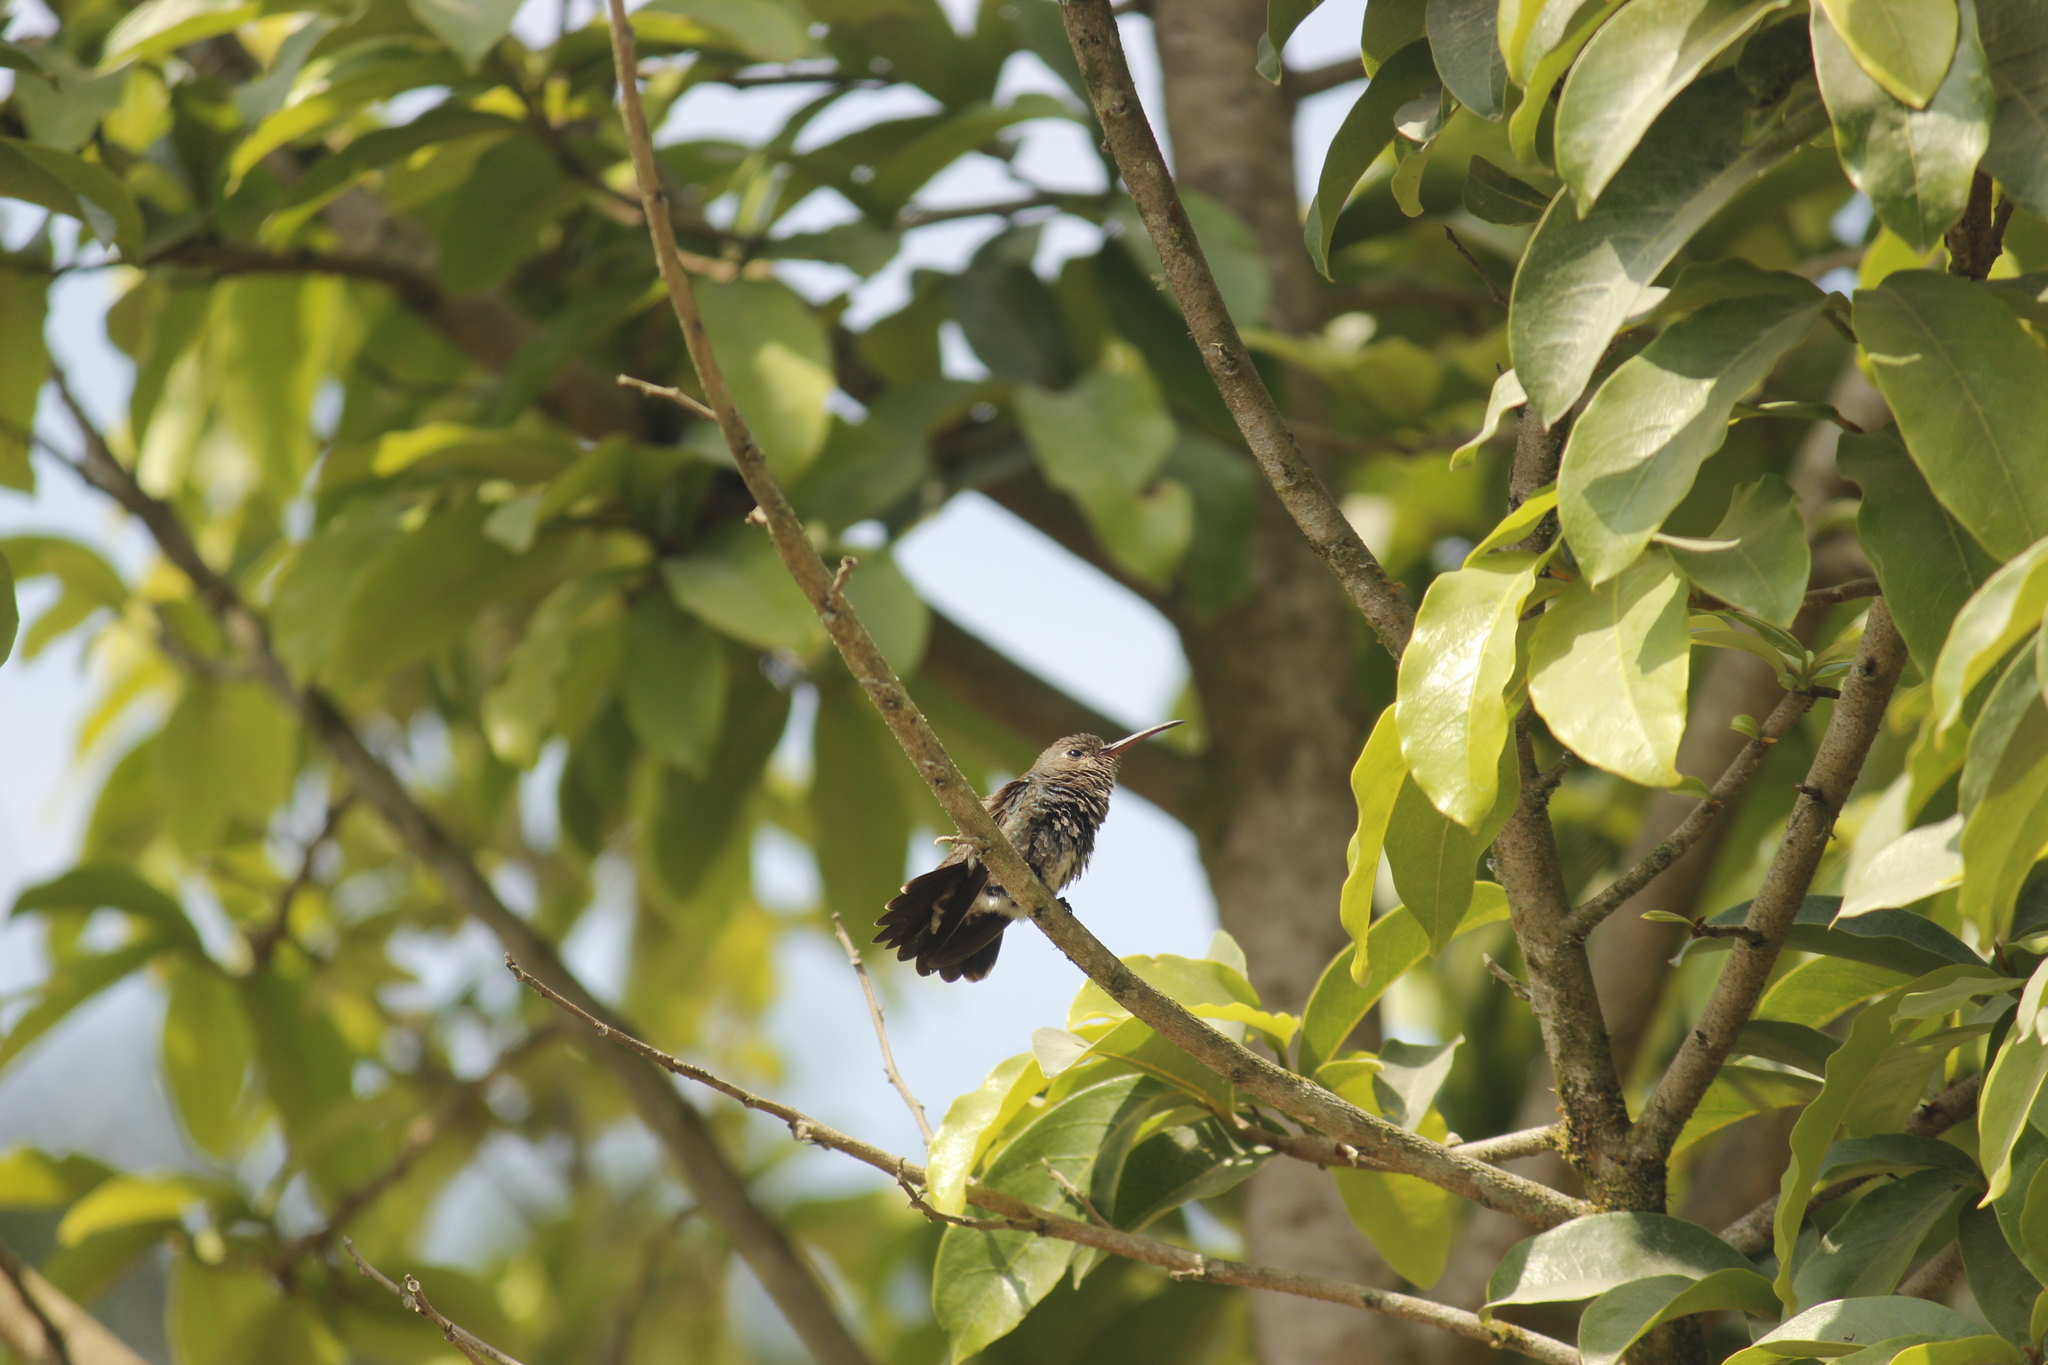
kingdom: Animalia
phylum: Chordata
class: Aves
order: Apodiformes
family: Trochilidae
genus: Chionomesa
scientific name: Chionomesa lactea
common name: Sapphire-spangled emerald
